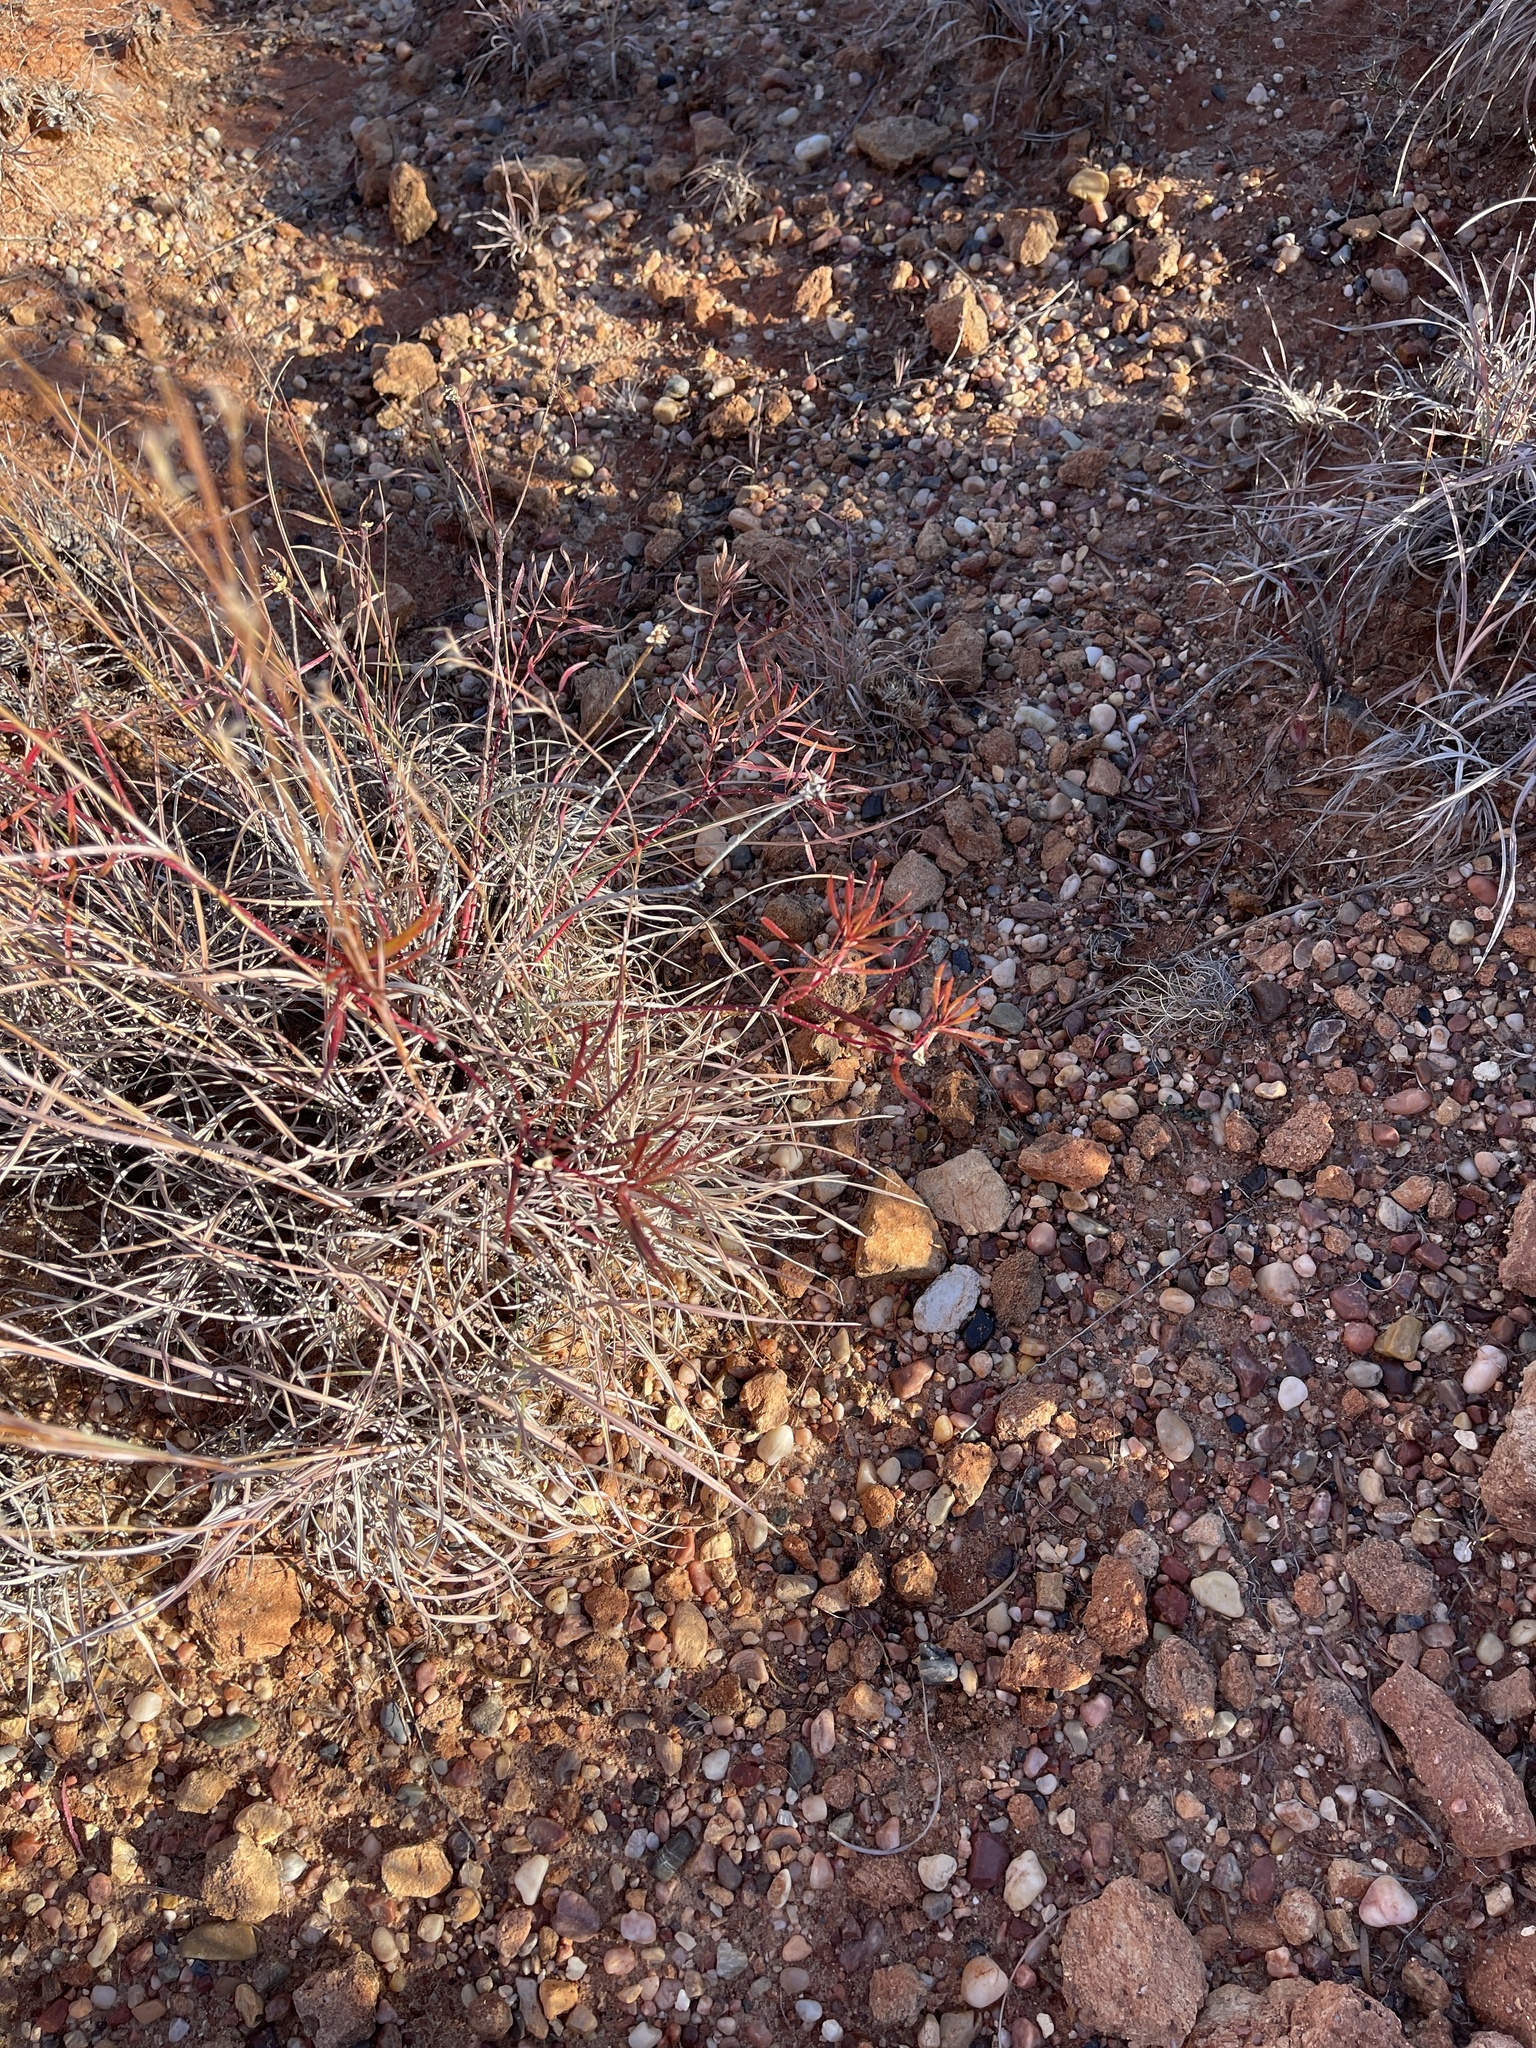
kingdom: Plantae
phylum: Tracheophyta
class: Magnoliopsida
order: Malpighiales
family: Euphorbiaceae
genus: Stillingia
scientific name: Stillingia texana
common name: Texas stillingia
